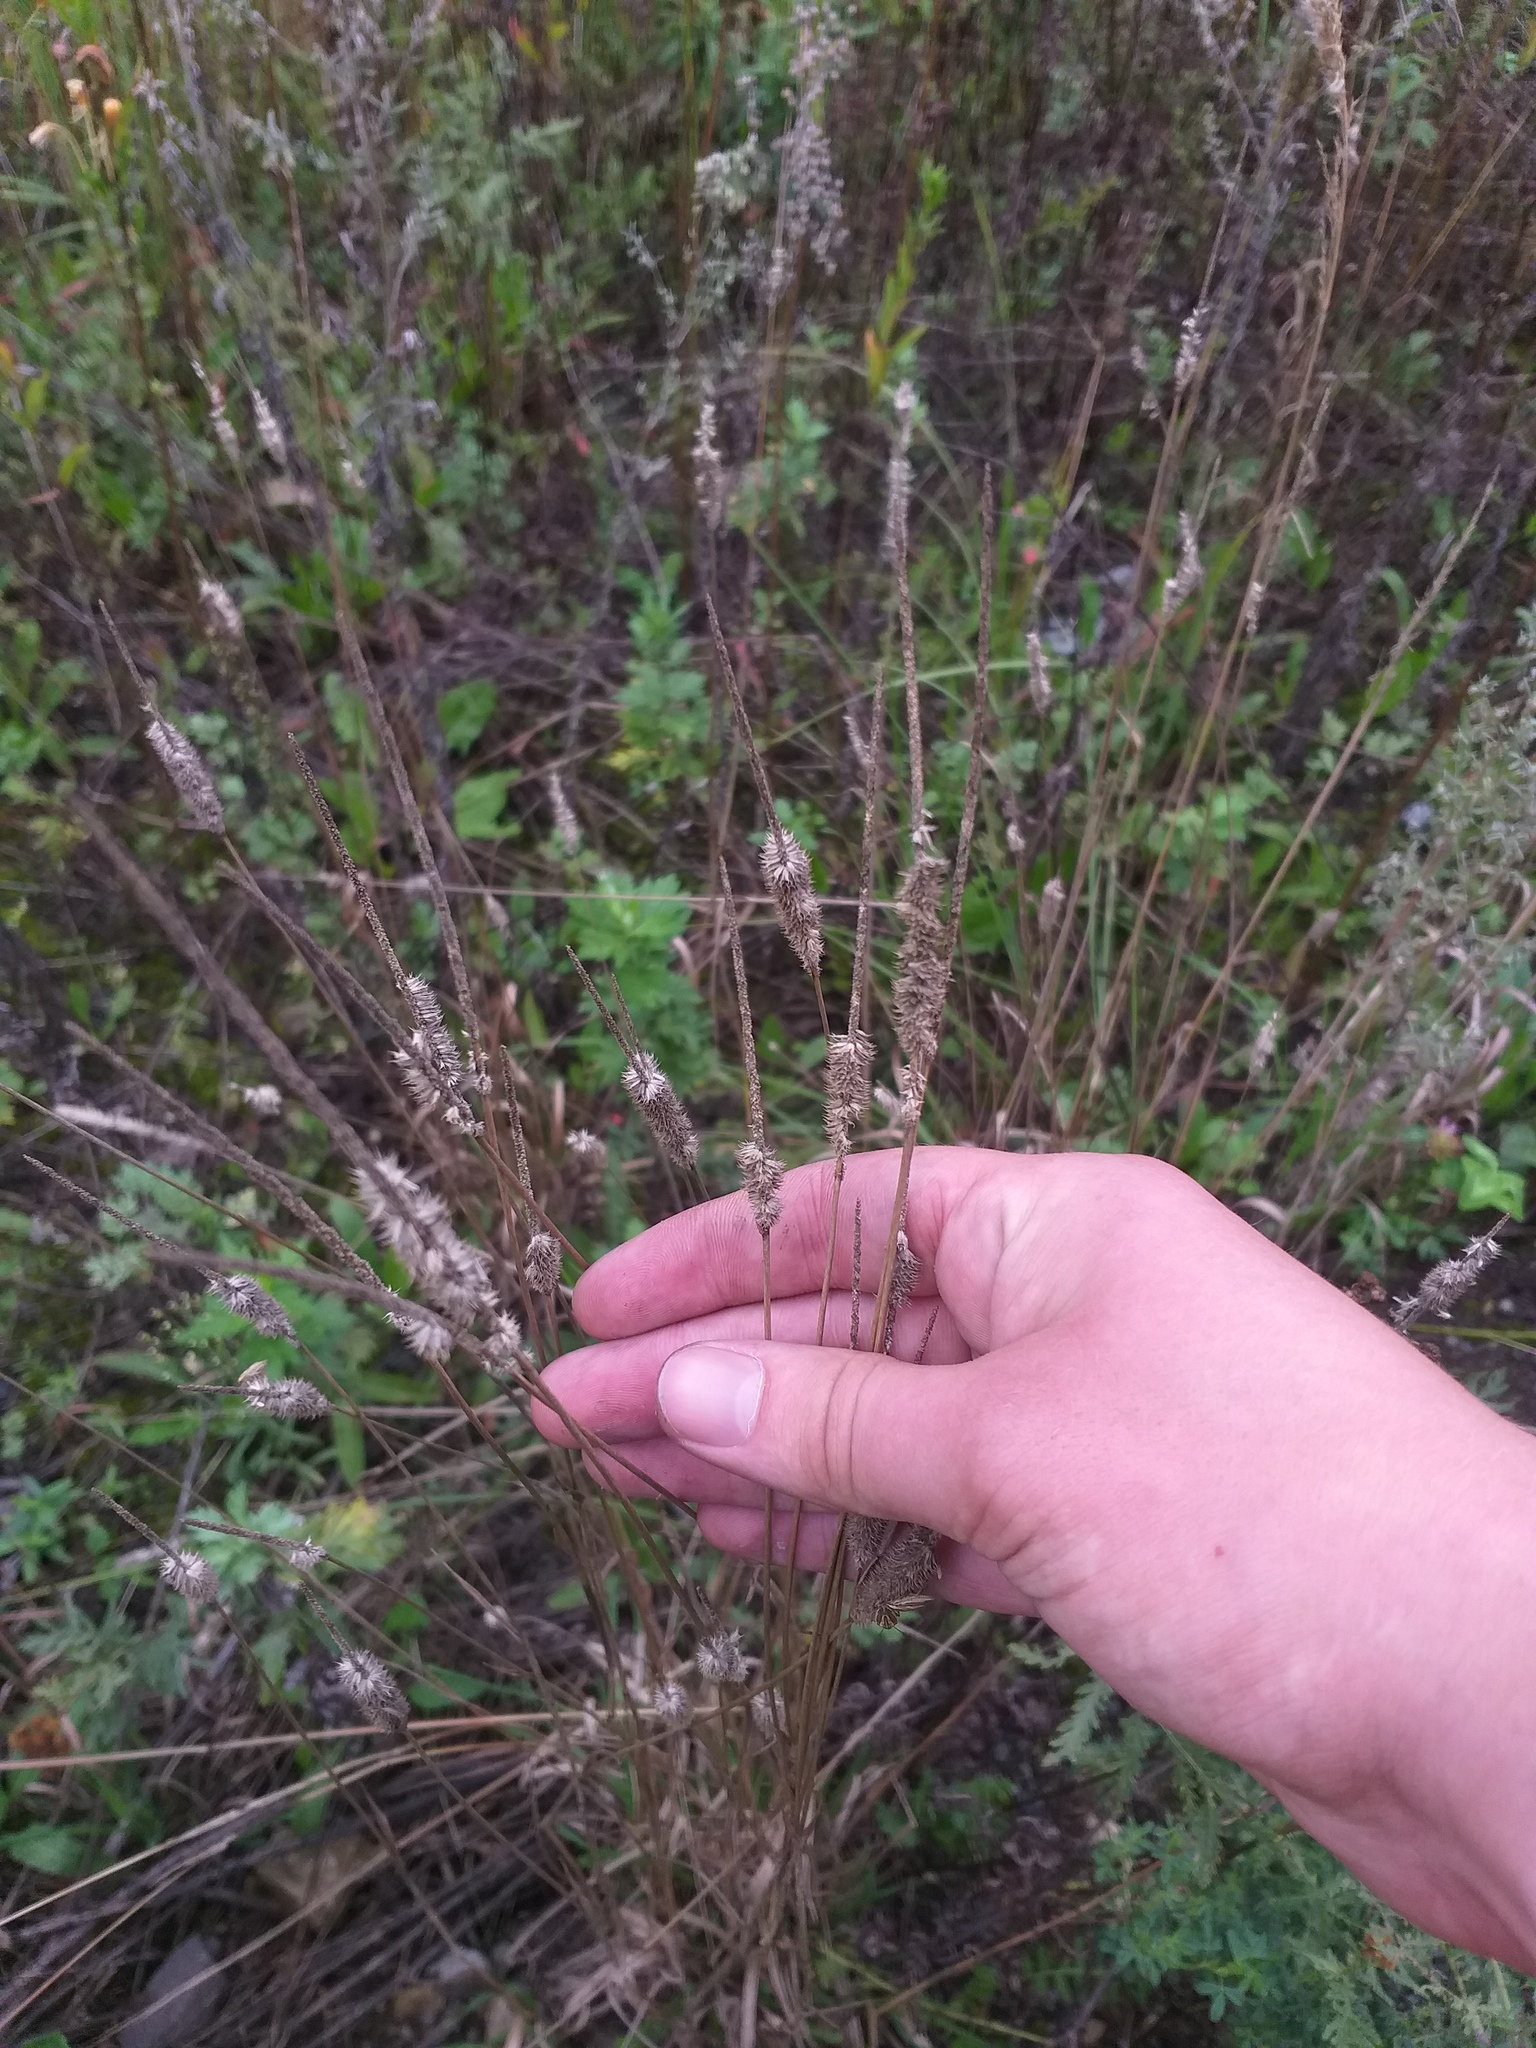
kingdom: Plantae
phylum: Tracheophyta
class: Liliopsida
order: Poales
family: Poaceae
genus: Phleum
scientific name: Phleum pratense
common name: Timothy grass
